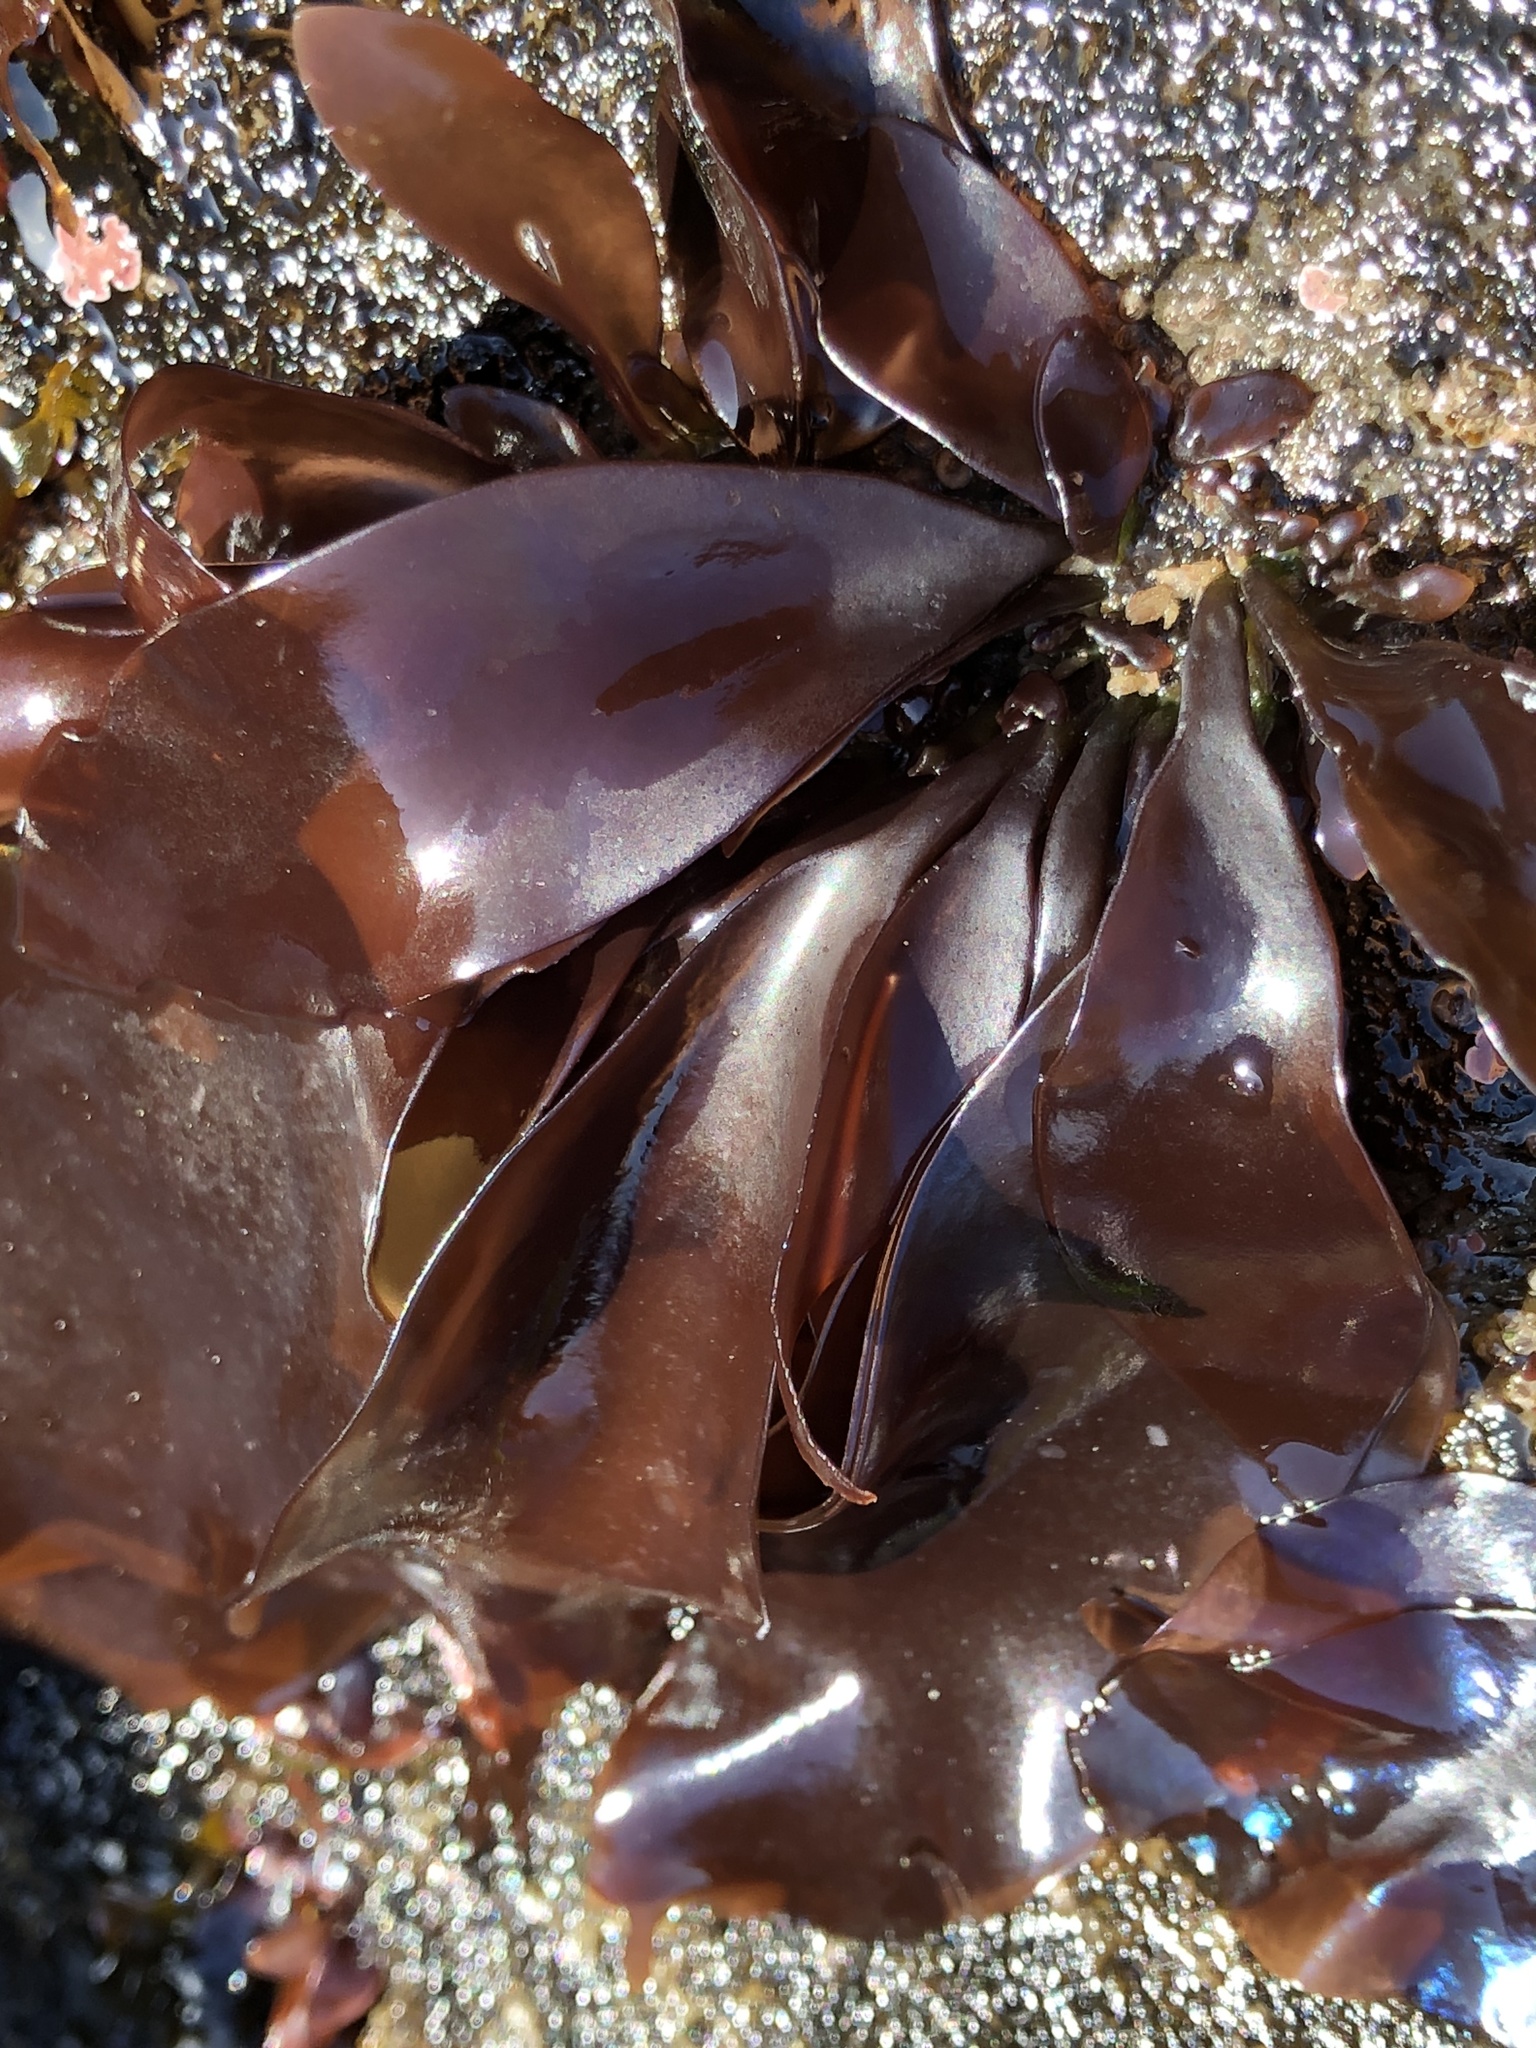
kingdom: Plantae
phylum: Rhodophyta
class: Florideophyceae
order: Gigartinales
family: Gigartinaceae
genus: Mazzaella
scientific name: Mazzaella splendens
